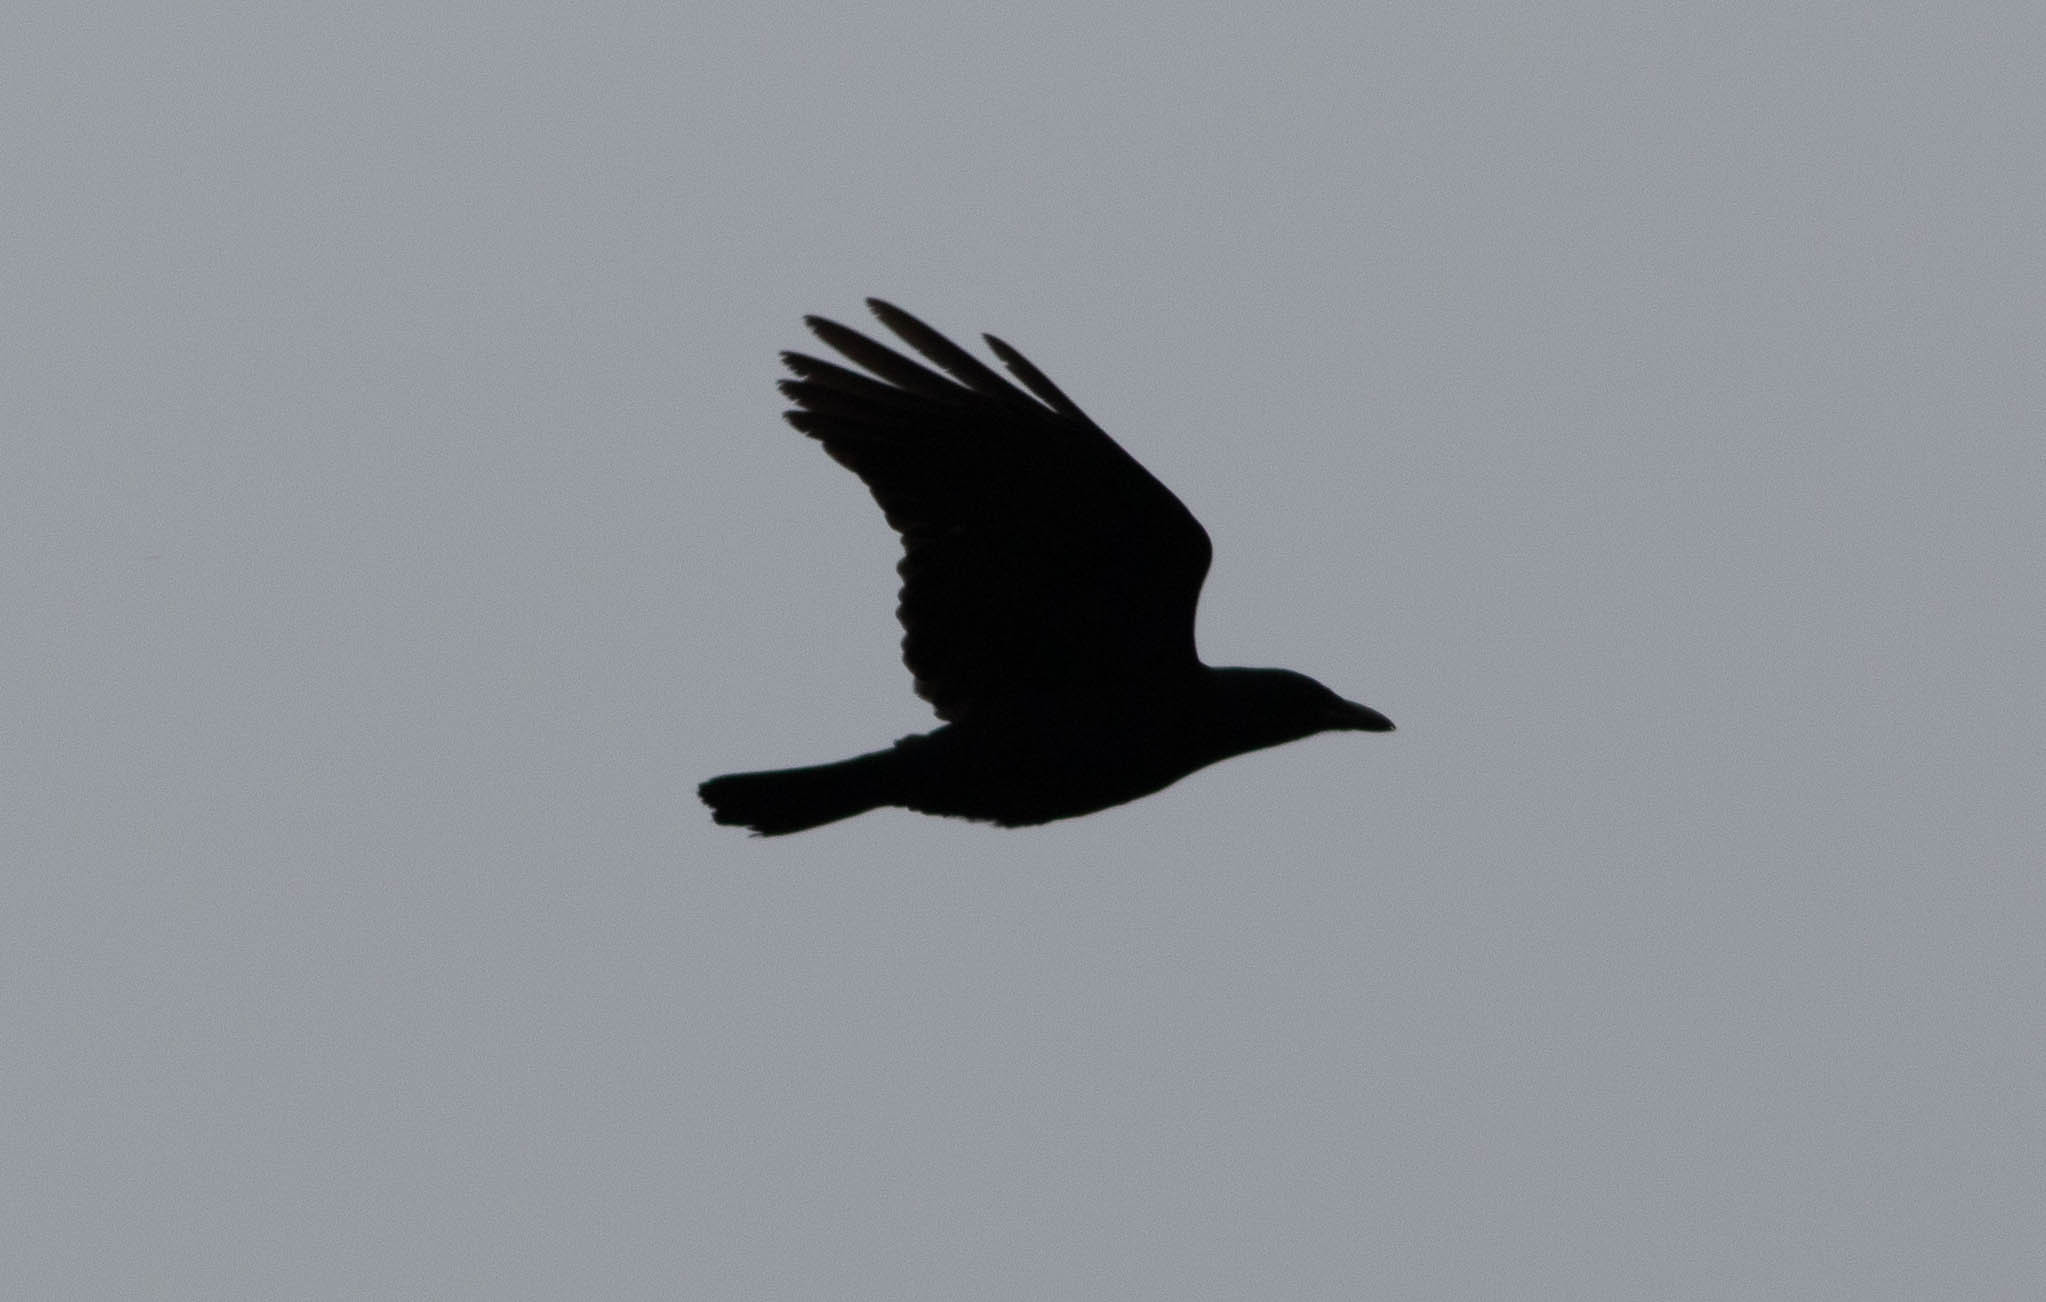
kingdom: Animalia
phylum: Chordata
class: Aves
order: Passeriformes
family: Corvidae
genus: Corvus
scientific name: Corvus brachyrhynchos
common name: American crow
